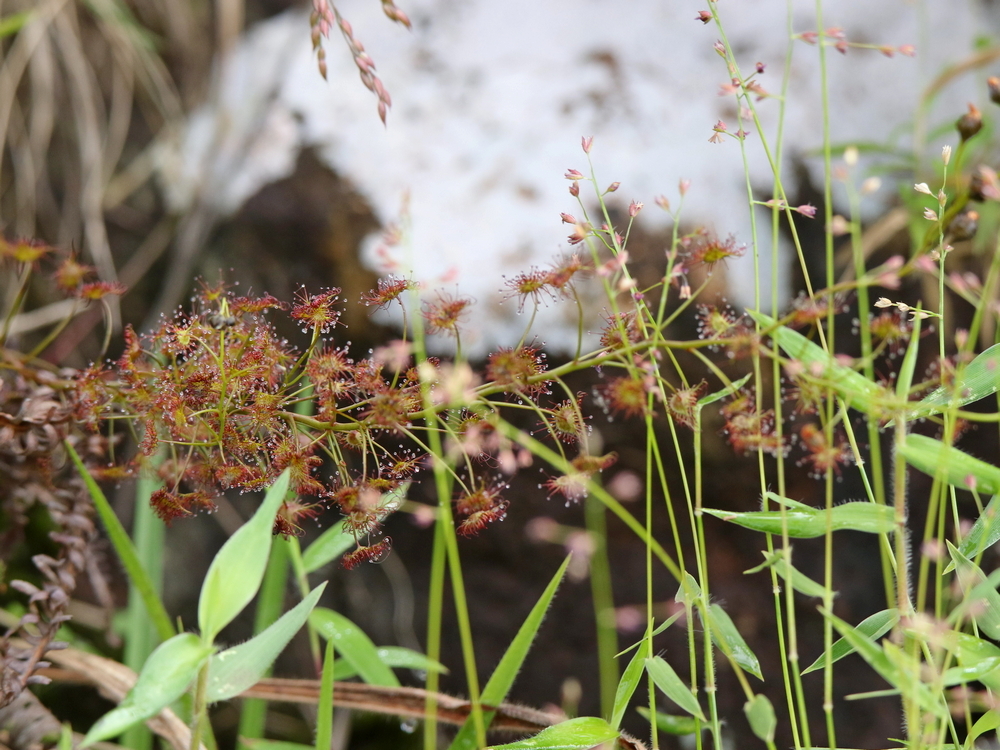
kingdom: Plantae
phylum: Tracheophyta
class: Magnoliopsida
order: Caryophyllales
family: Droseraceae
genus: Drosera
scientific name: Drosera peltata
